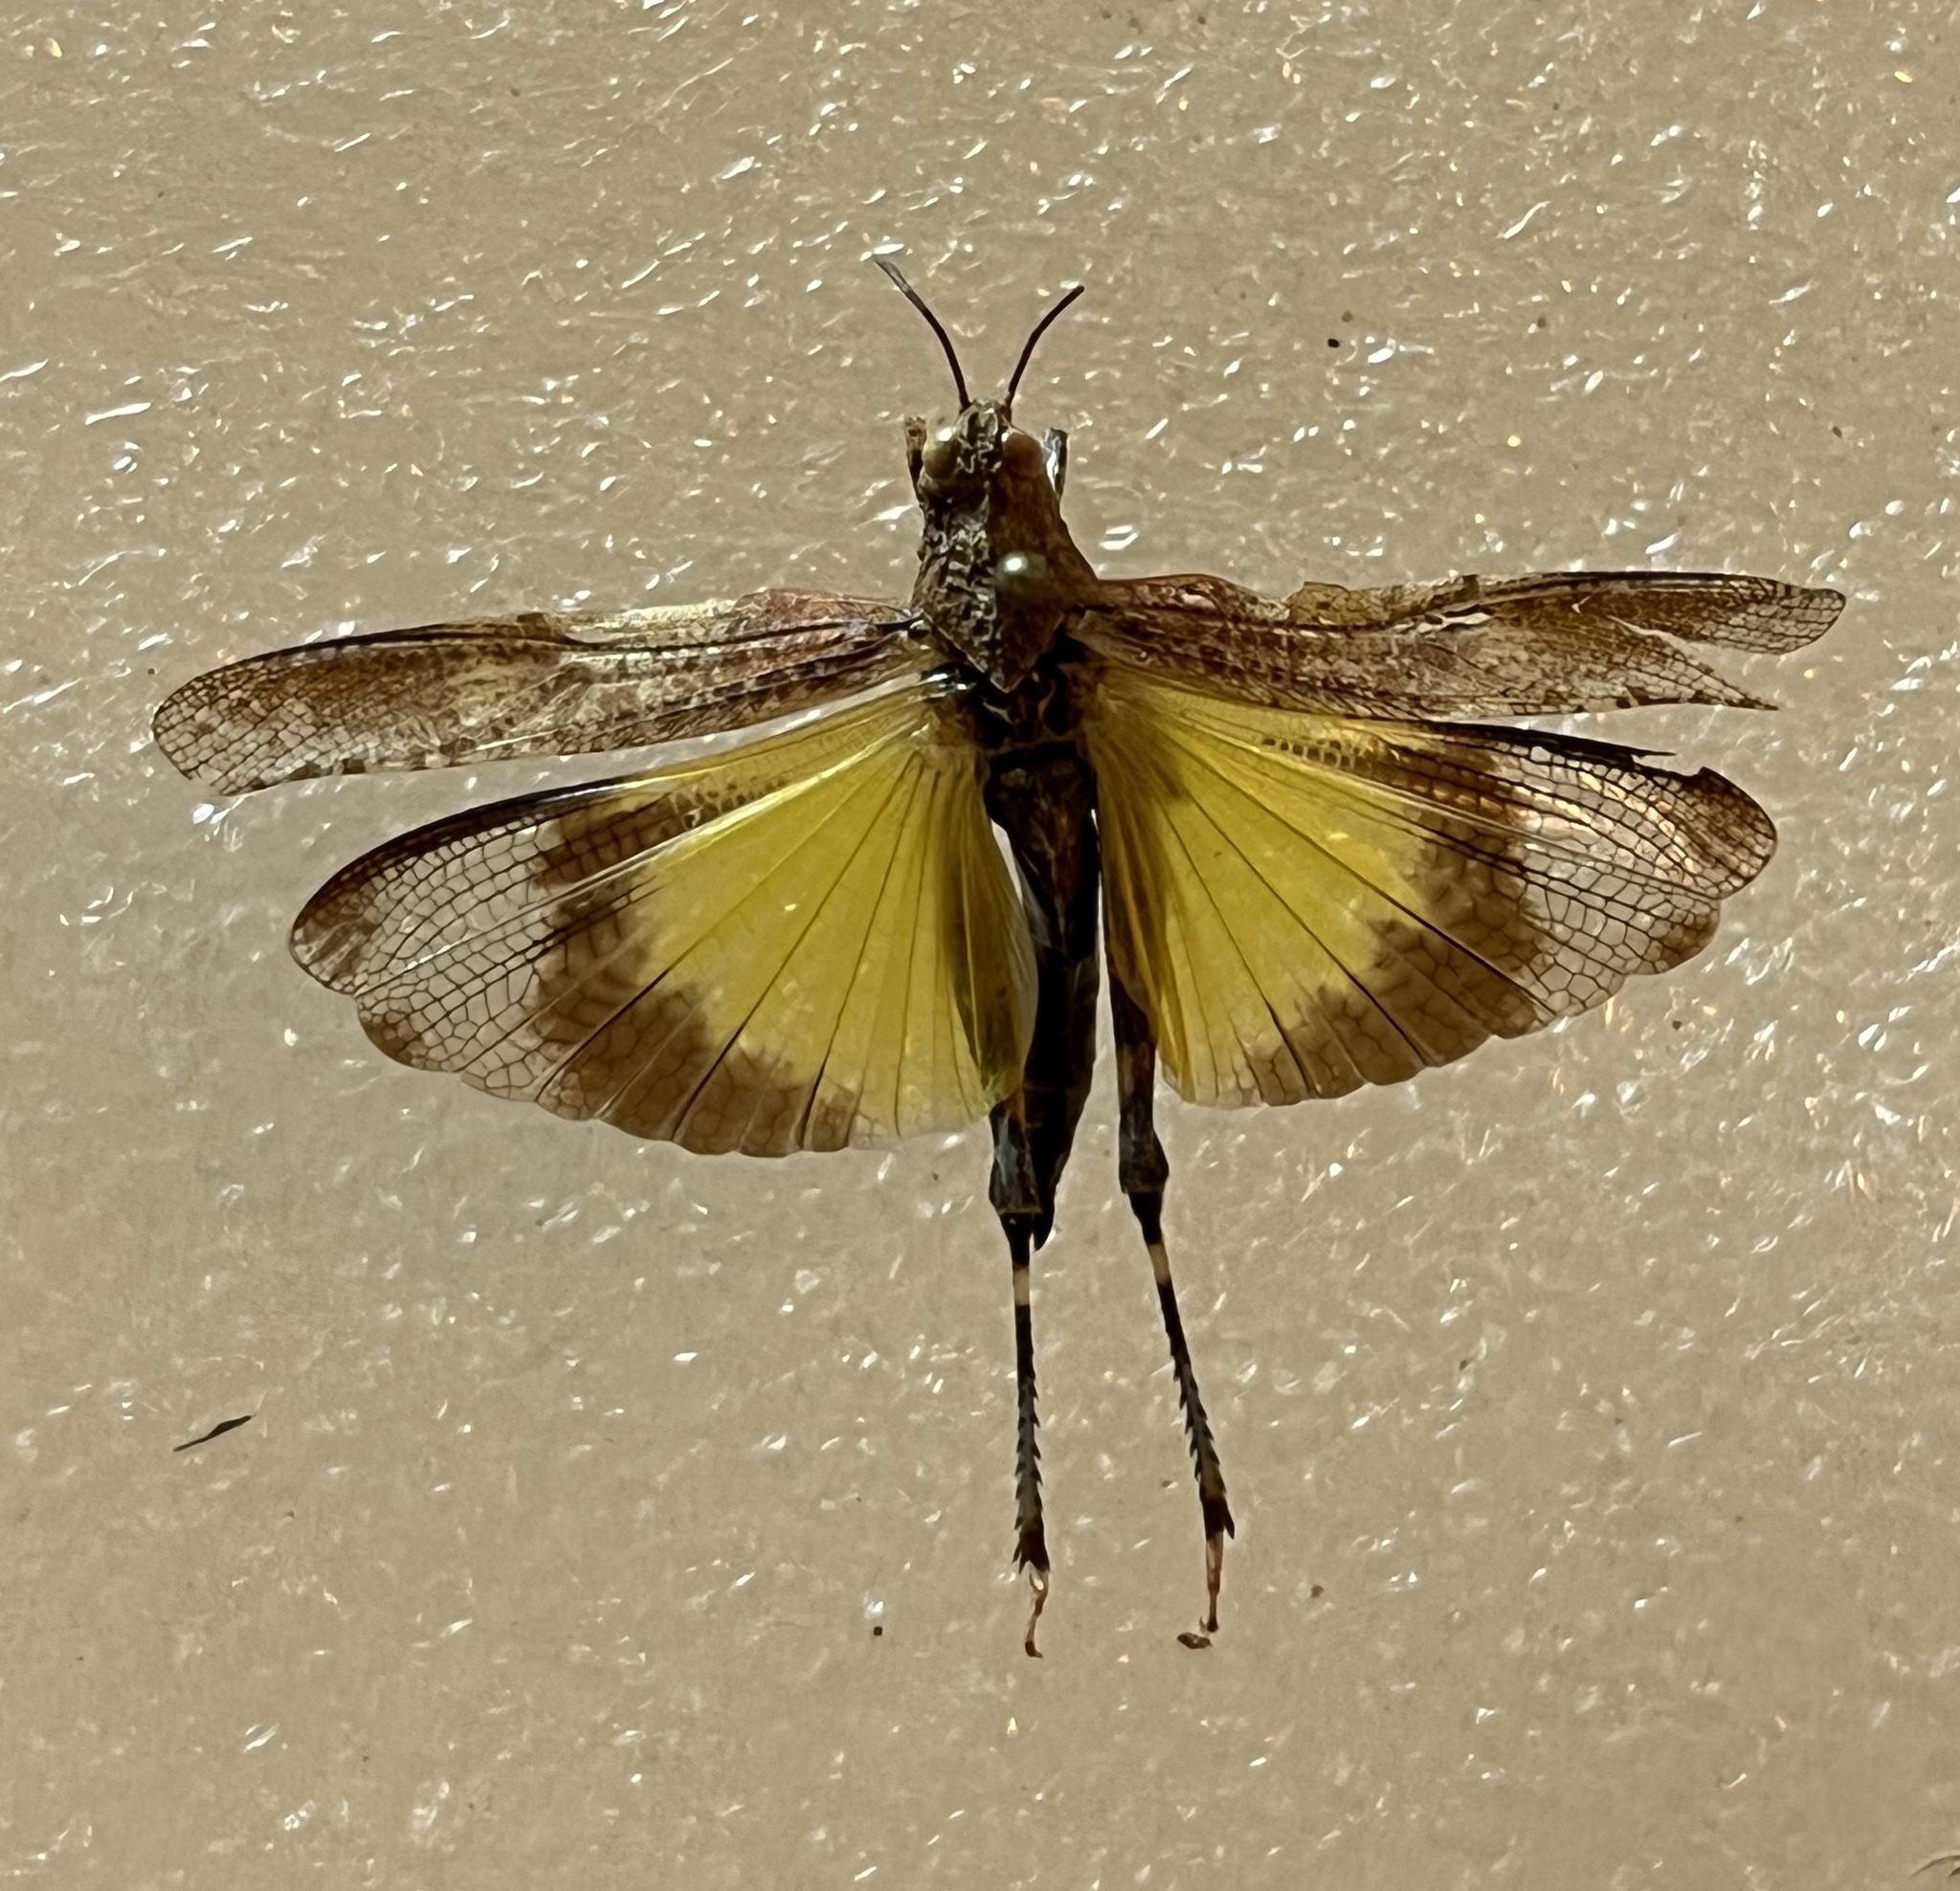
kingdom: Animalia
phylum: Arthropoda
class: Insecta
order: Orthoptera
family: Acrididae
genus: Lactista
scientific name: Lactista gibbosus
